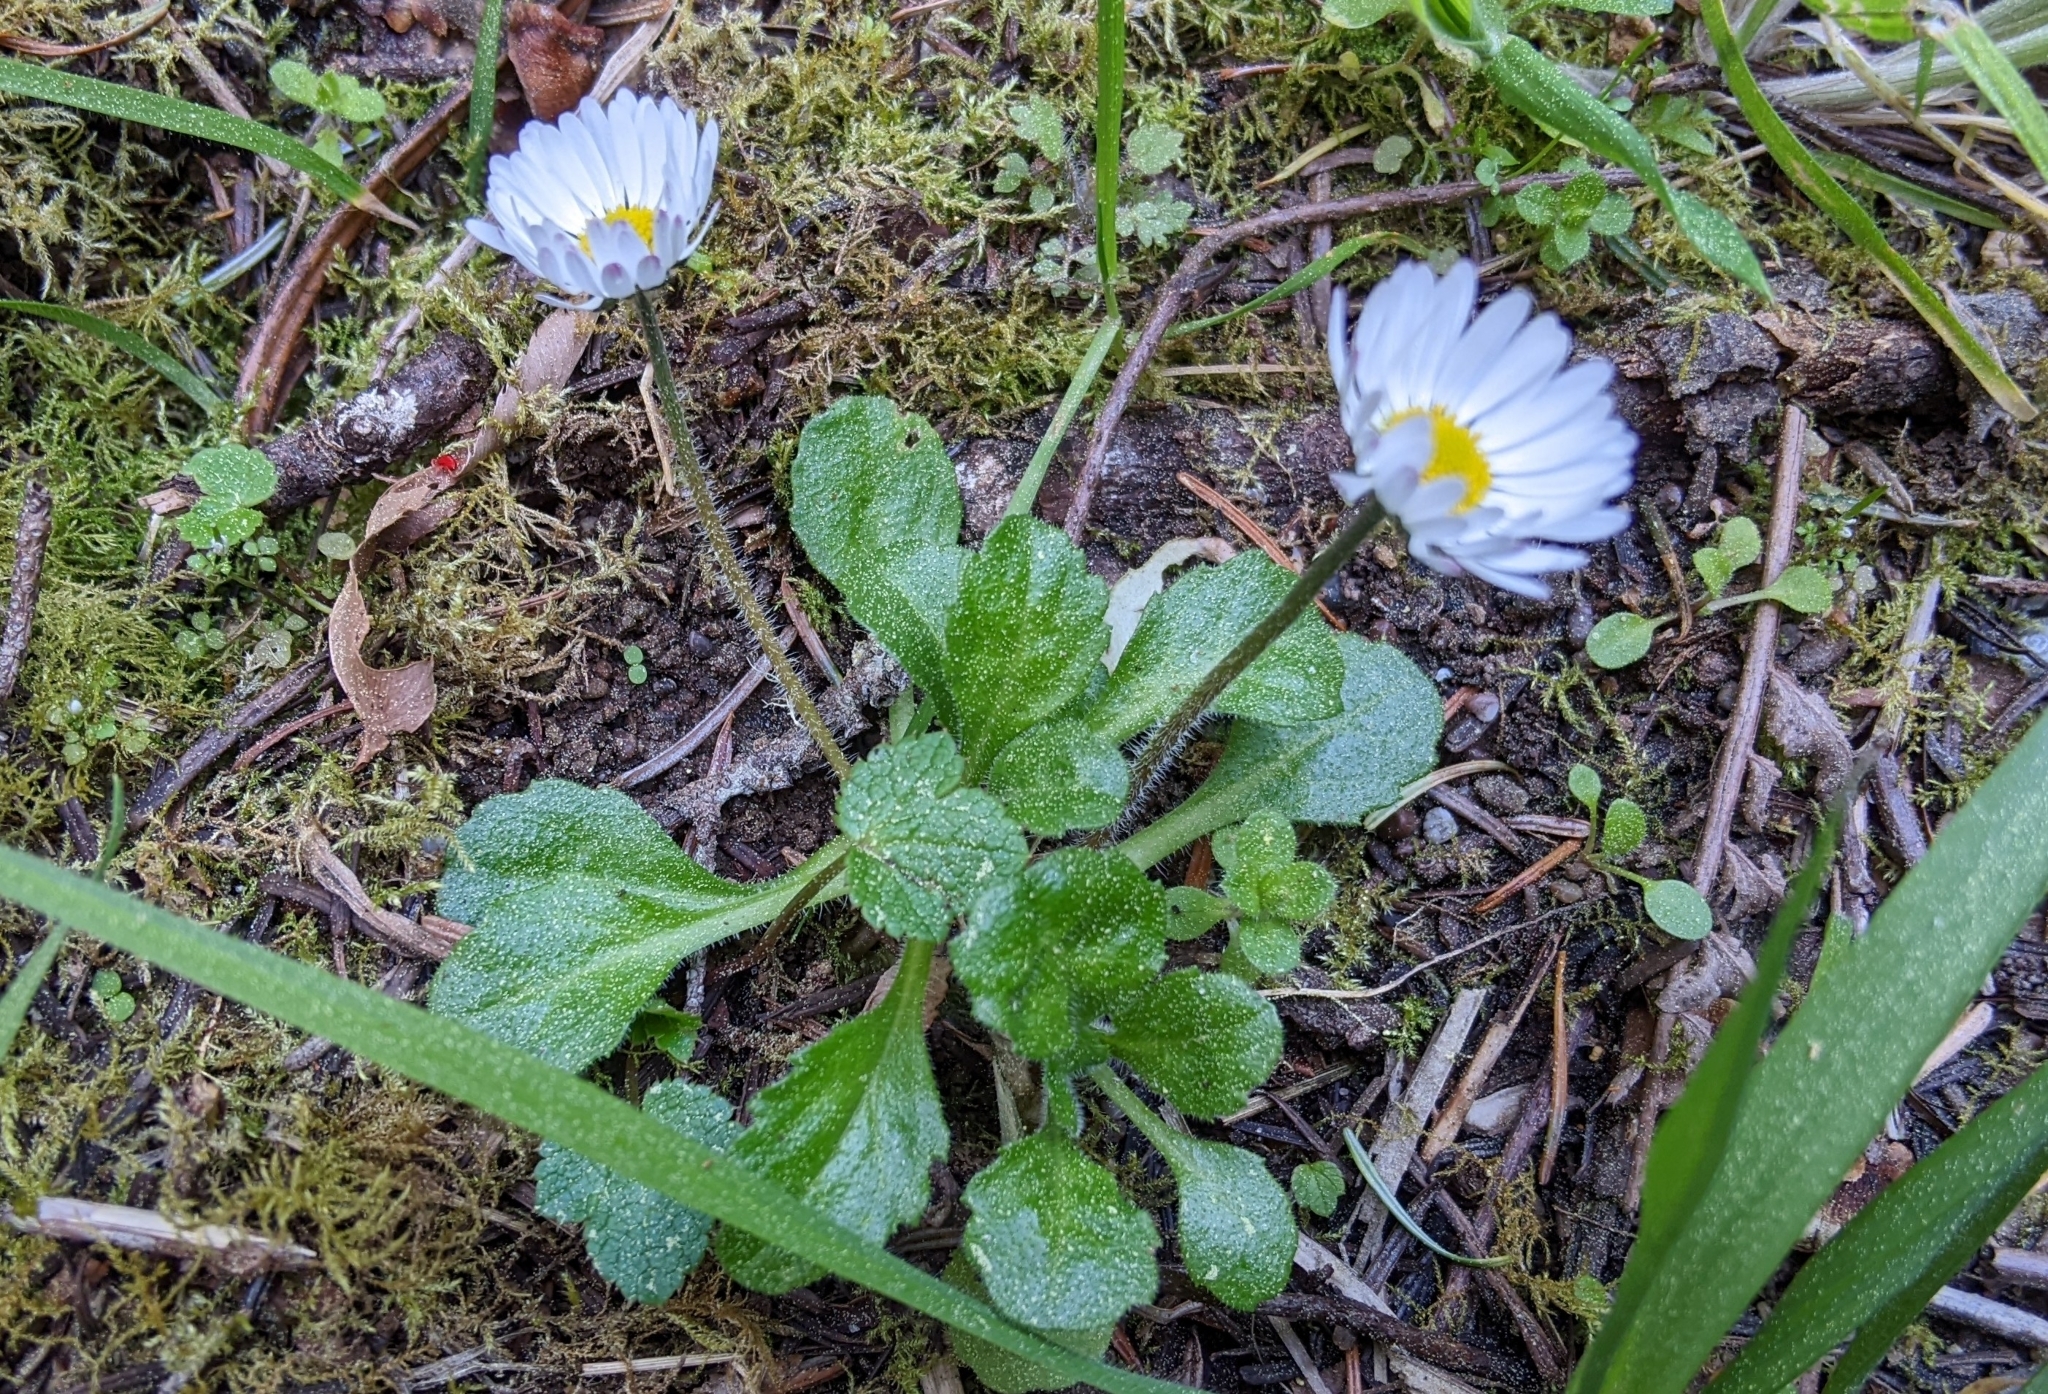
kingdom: Plantae
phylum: Tracheophyta
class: Magnoliopsida
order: Asterales
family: Asteraceae
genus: Bellis
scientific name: Bellis perennis
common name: Lawndaisy
